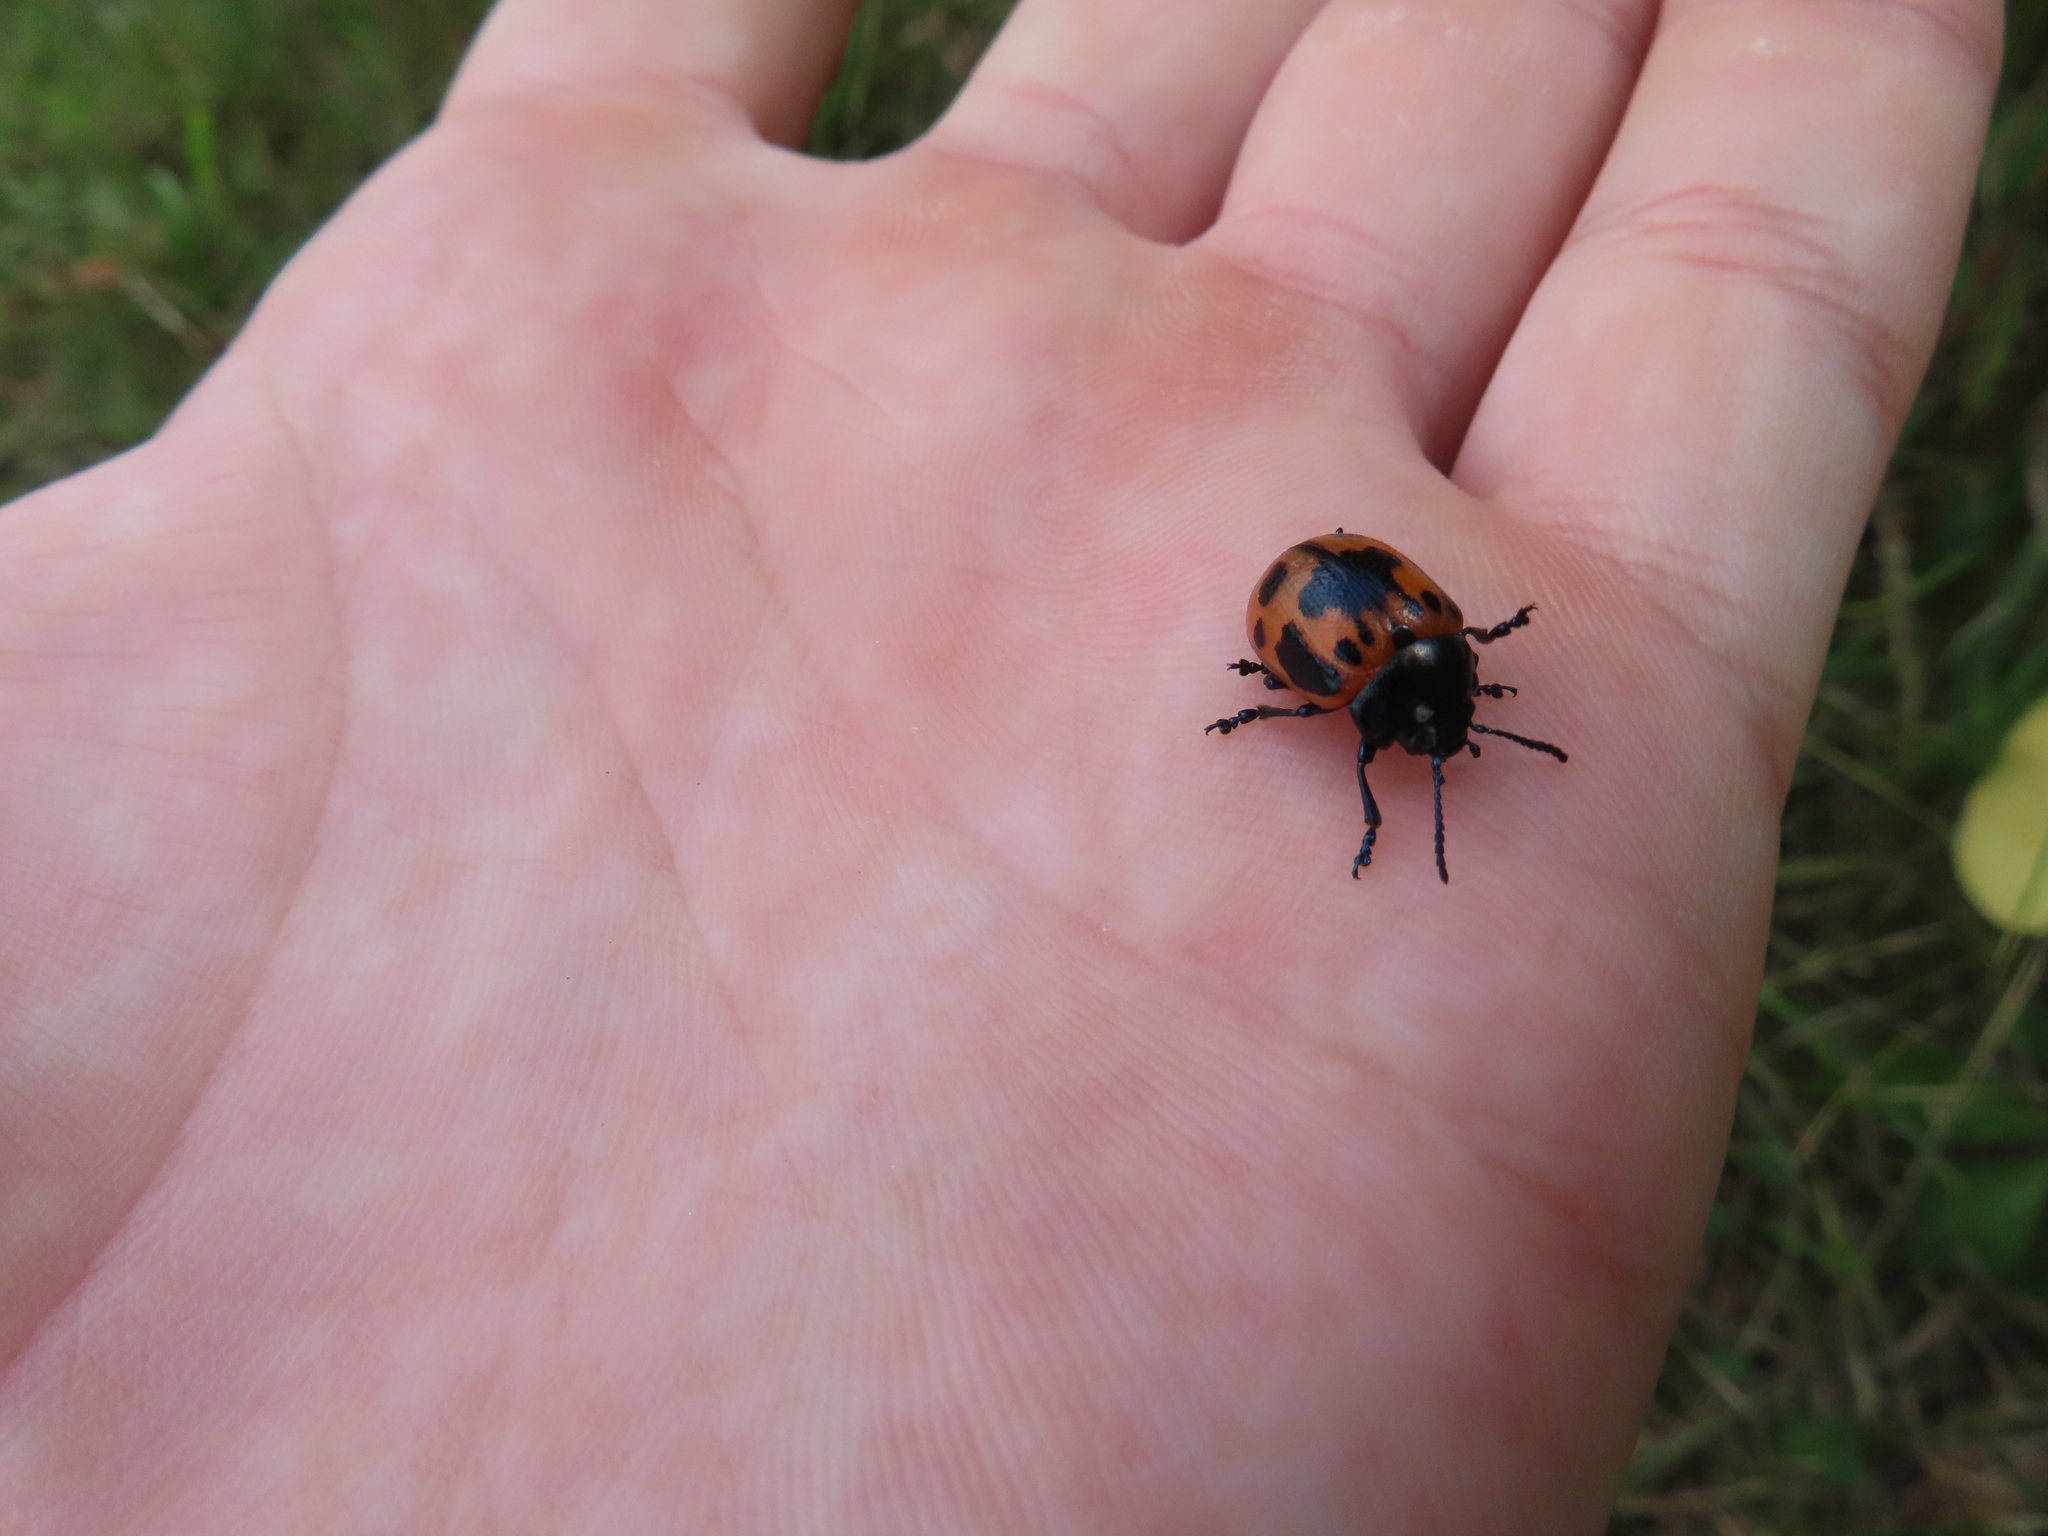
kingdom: Animalia
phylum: Arthropoda
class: Insecta
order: Coleoptera
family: Chrysomelidae
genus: Labidomera
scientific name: Labidomera clivicollis
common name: Swamp milkweed leaf beetle
